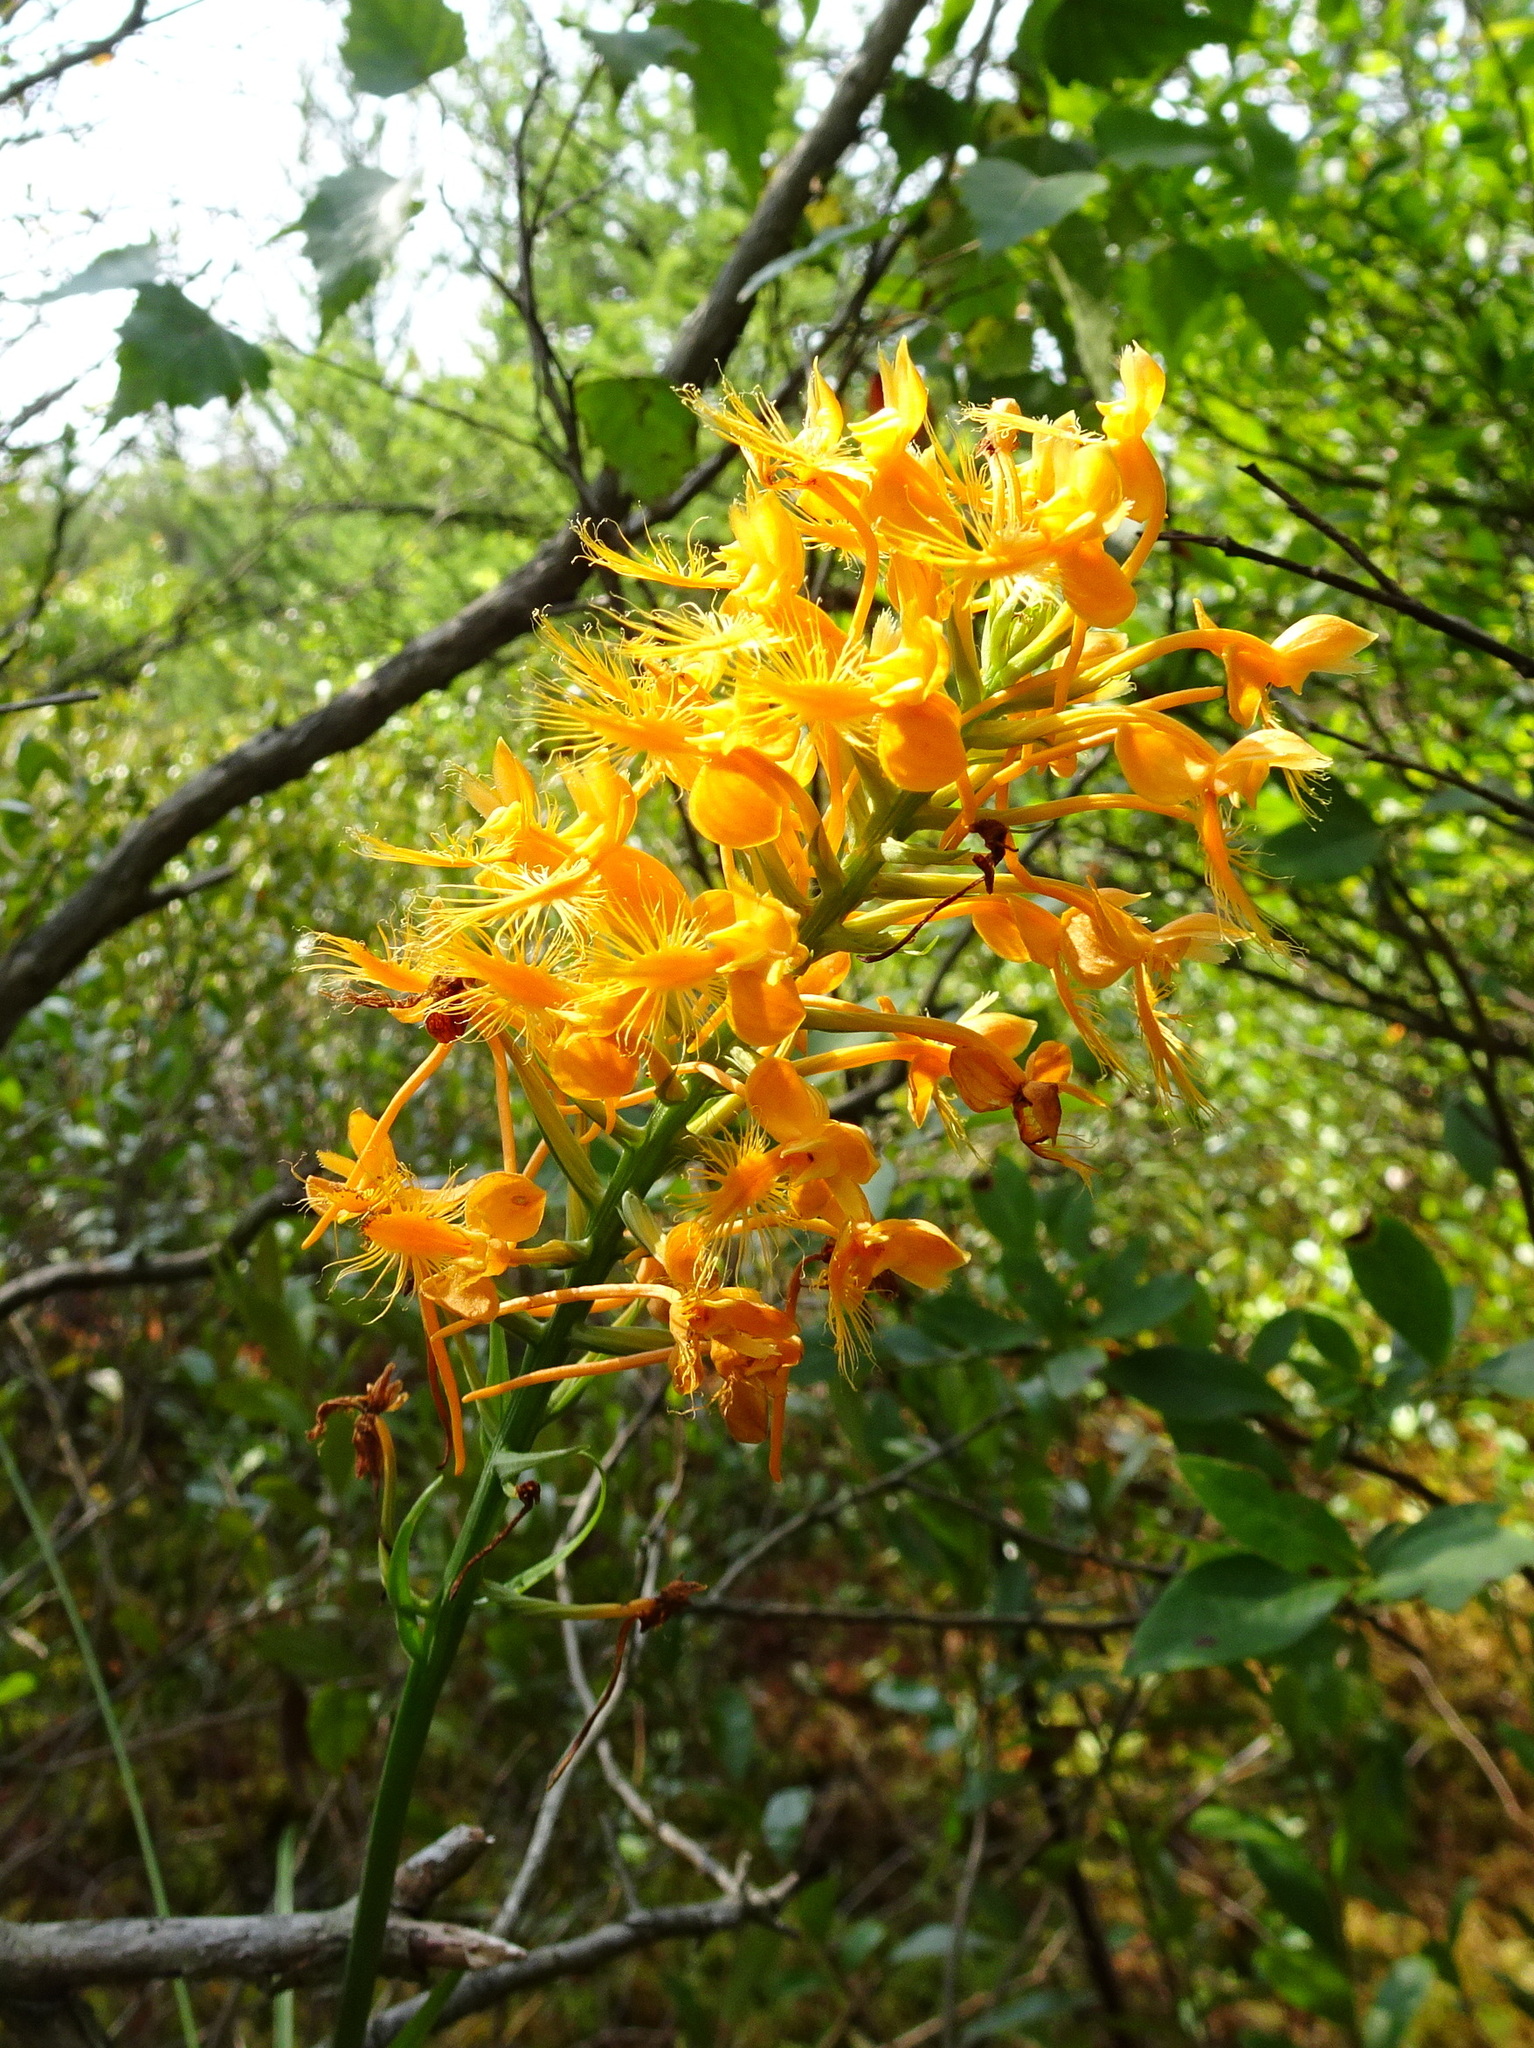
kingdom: Plantae
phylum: Tracheophyta
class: Liliopsida
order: Asparagales
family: Orchidaceae
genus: Platanthera
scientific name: Platanthera ciliaris
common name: Yellow fringed orchid
